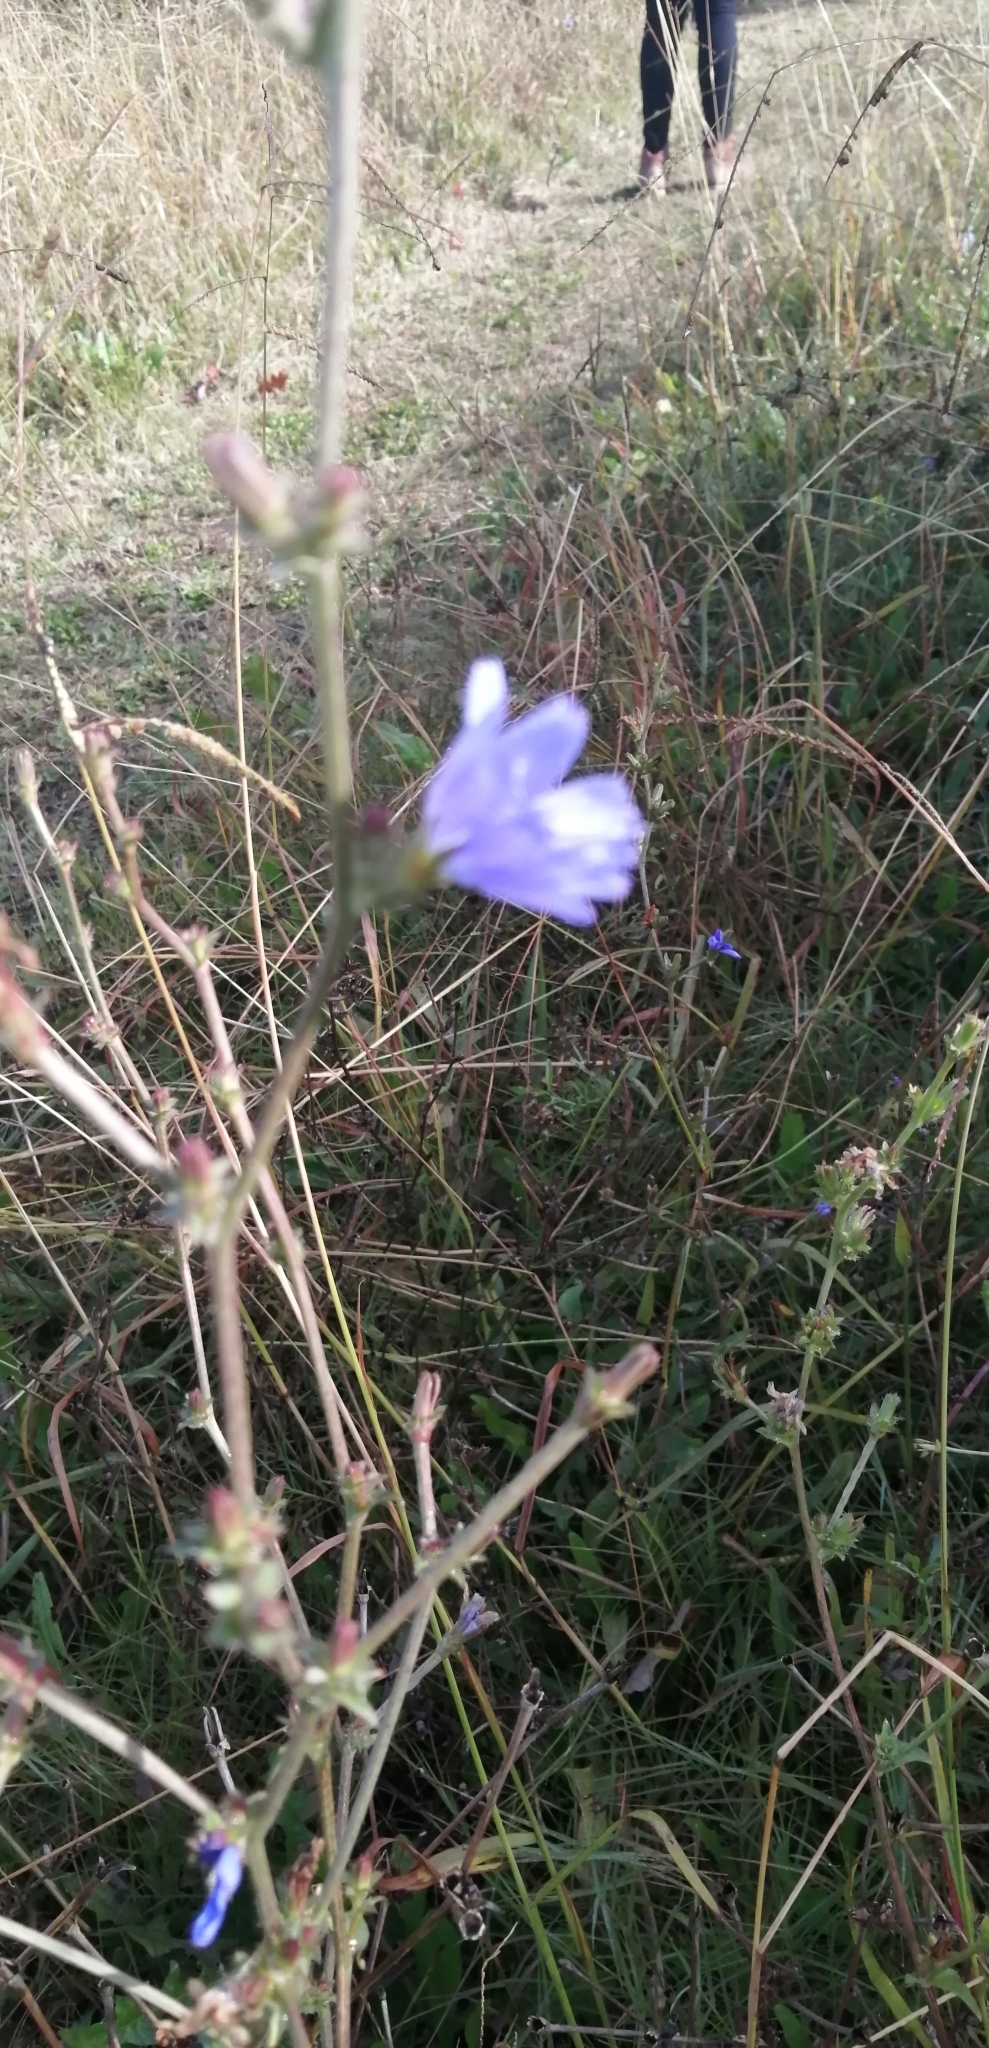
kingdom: Plantae
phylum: Tracheophyta
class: Magnoliopsida
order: Asterales
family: Asteraceae
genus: Cichorium
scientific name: Cichorium intybus
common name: Chicory
